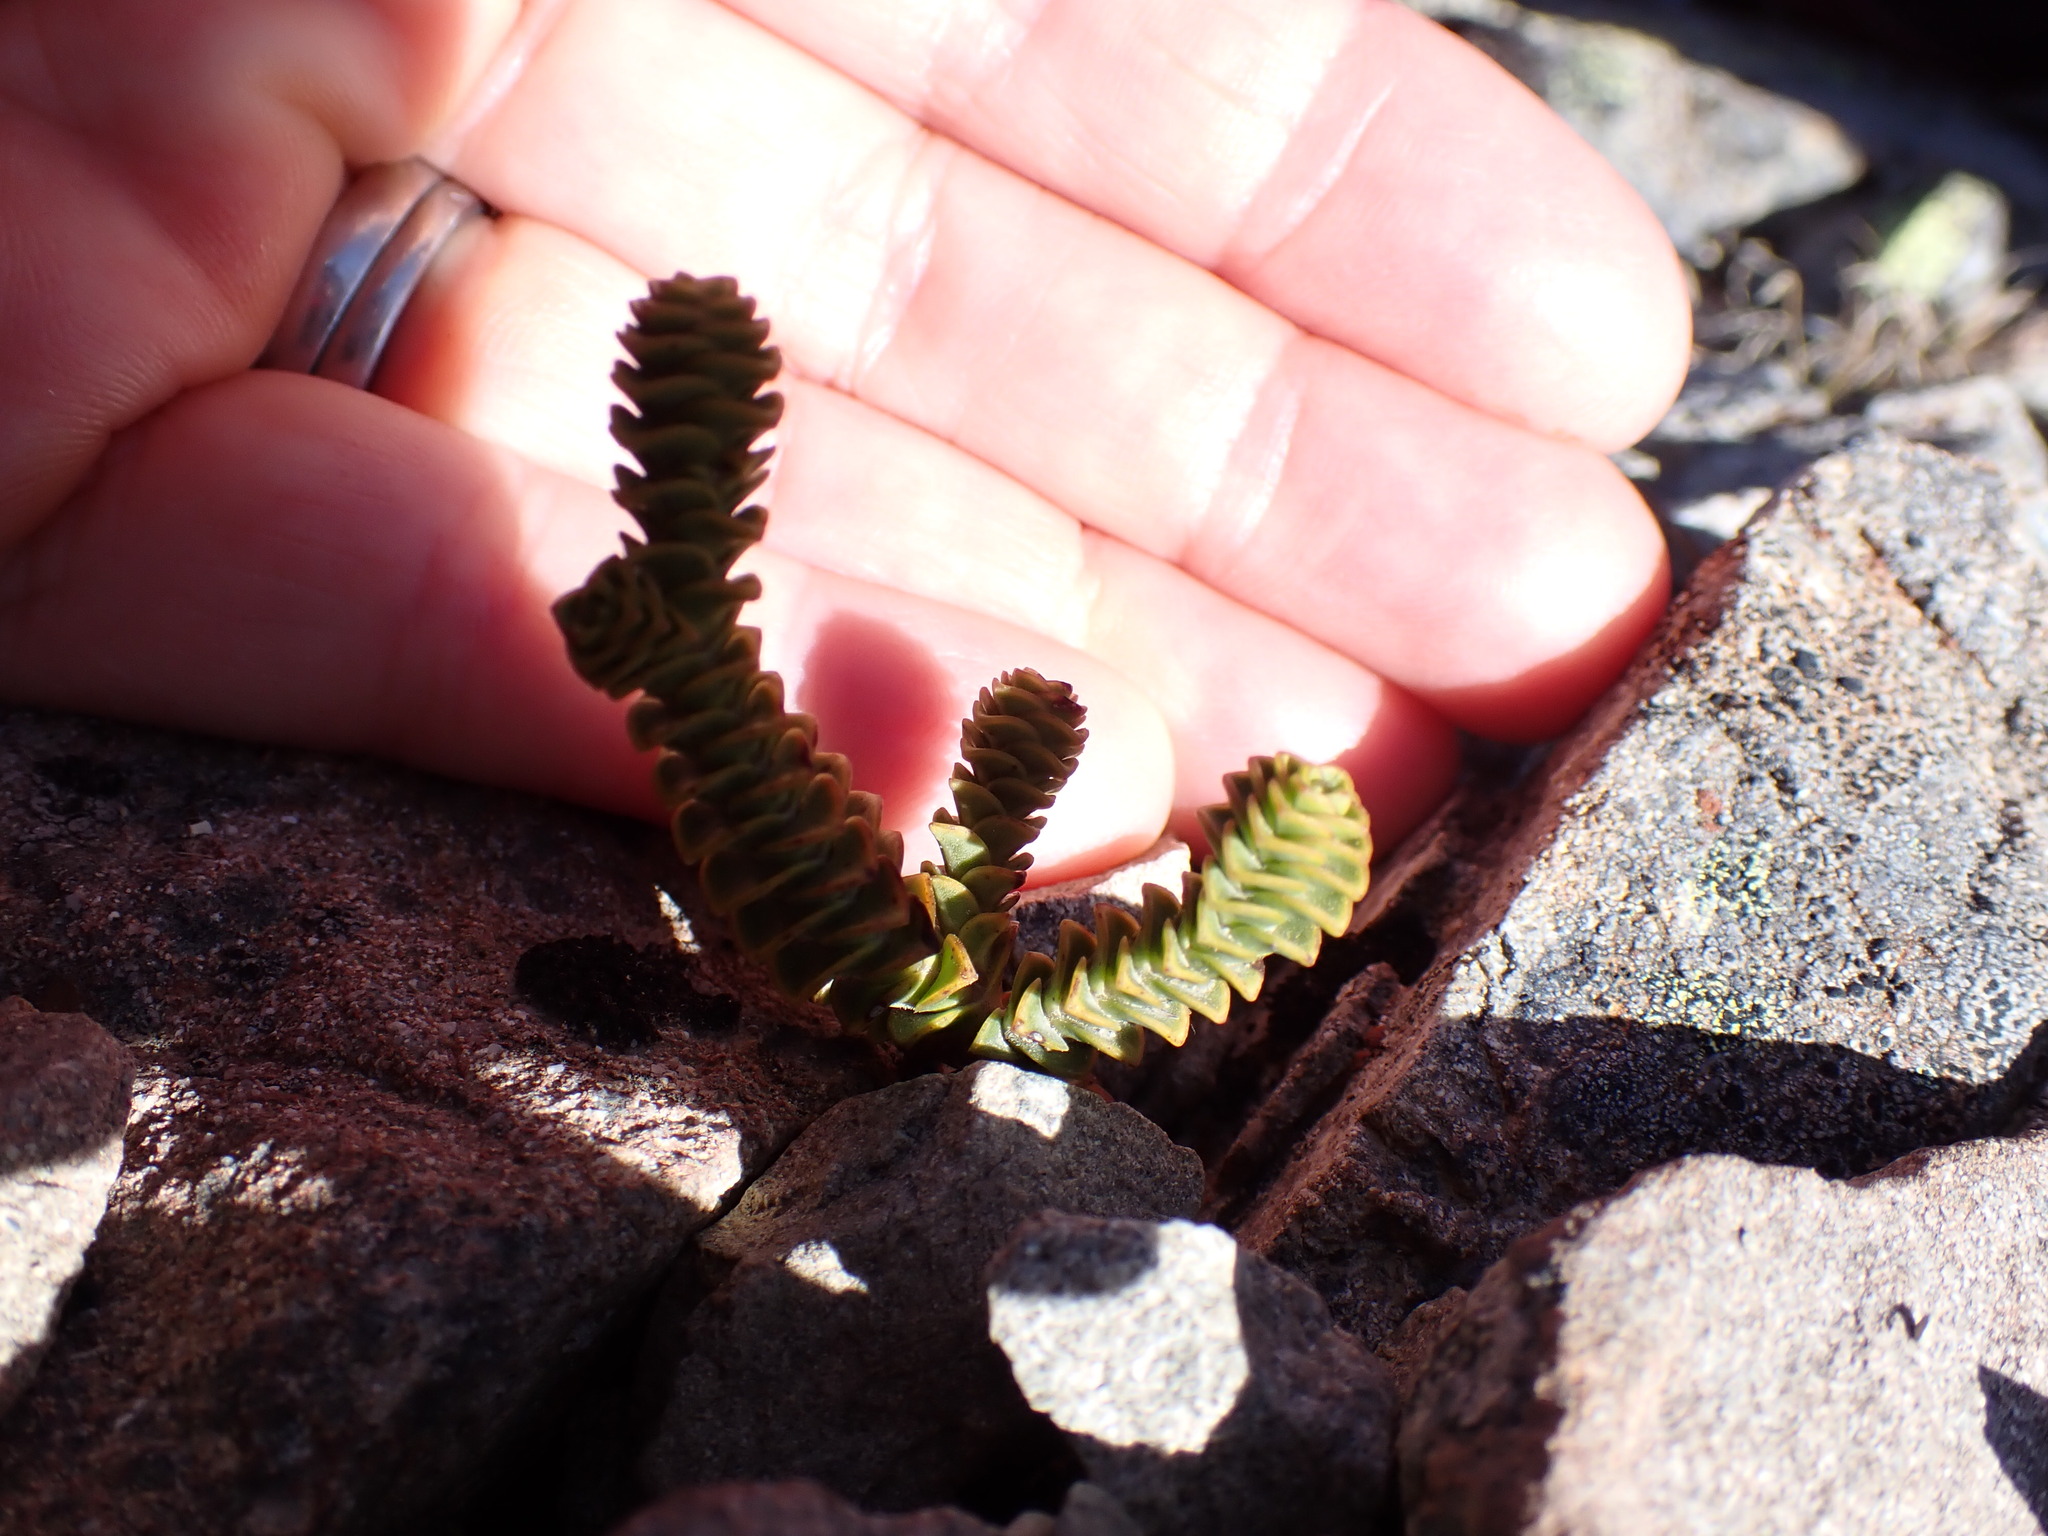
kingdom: Plantae
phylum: Tracheophyta
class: Magnoliopsida
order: Lamiales
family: Plantaginaceae
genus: Veronica
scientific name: Veronica epacridea
